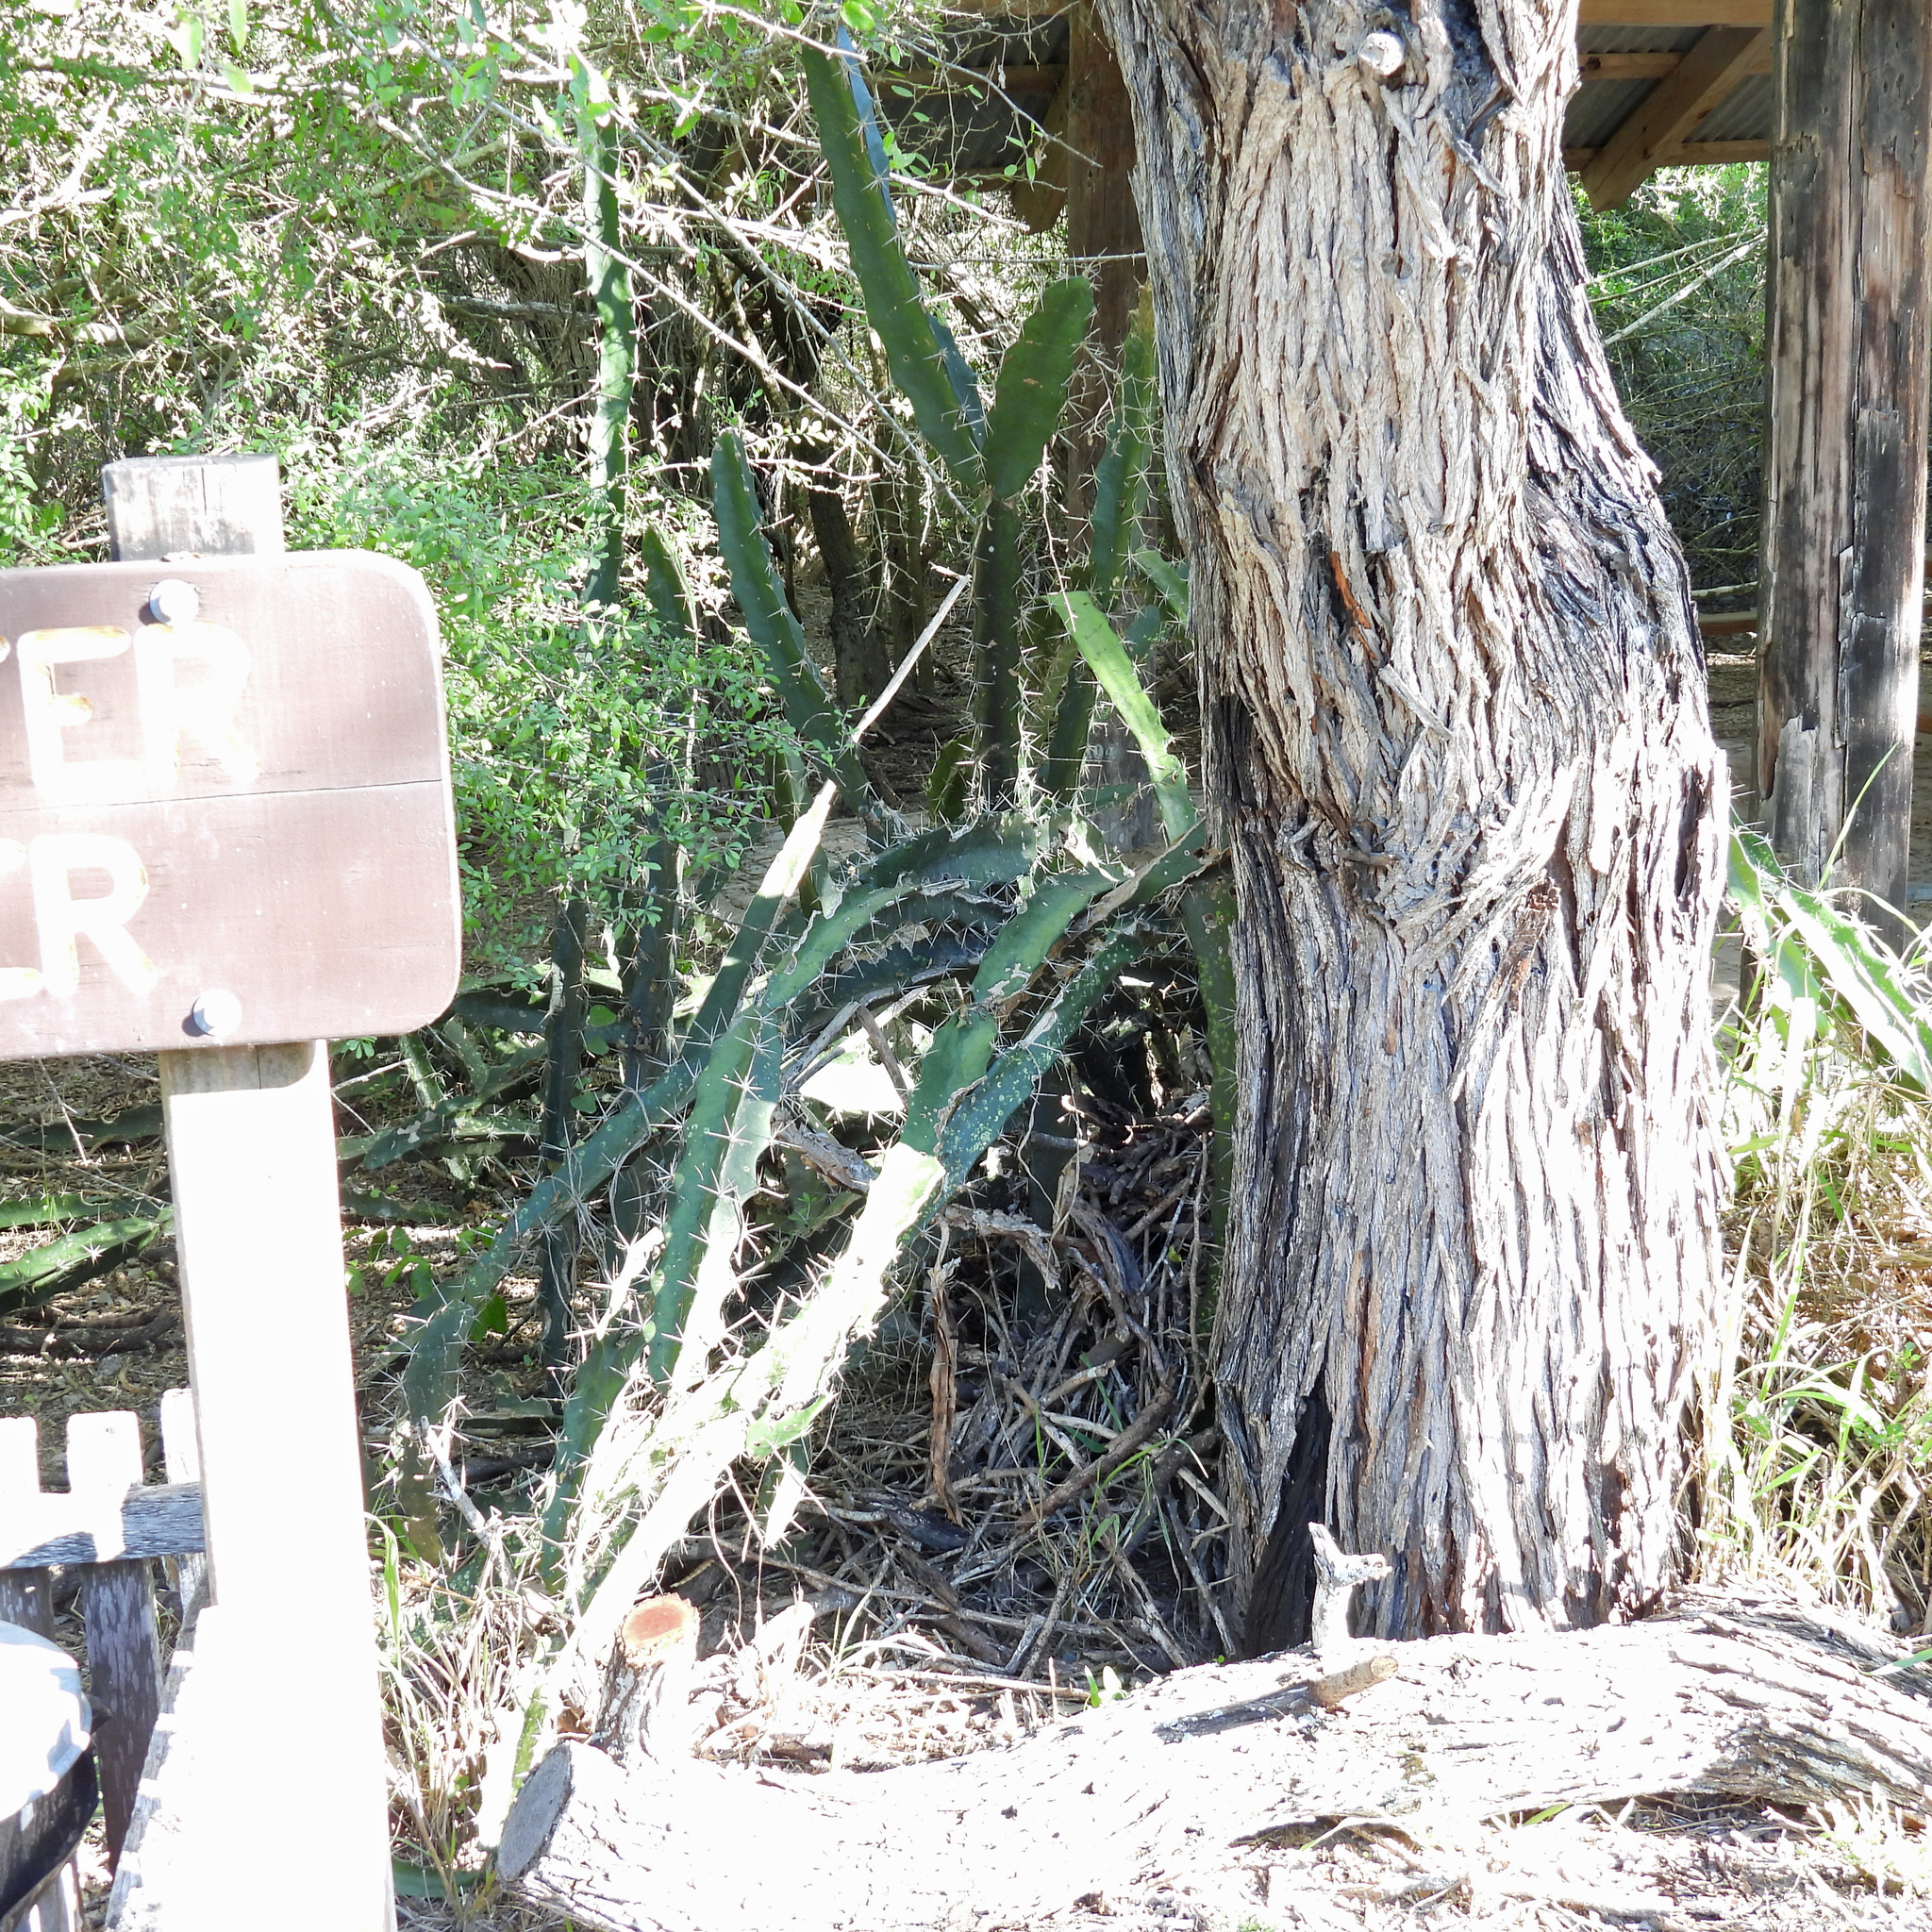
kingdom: Plantae
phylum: Tracheophyta
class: Magnoliopsida
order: Caryophyllales
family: Cactaceae
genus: Acanthocereus
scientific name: Acanthocereus tetragonus
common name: Triangle cactus
